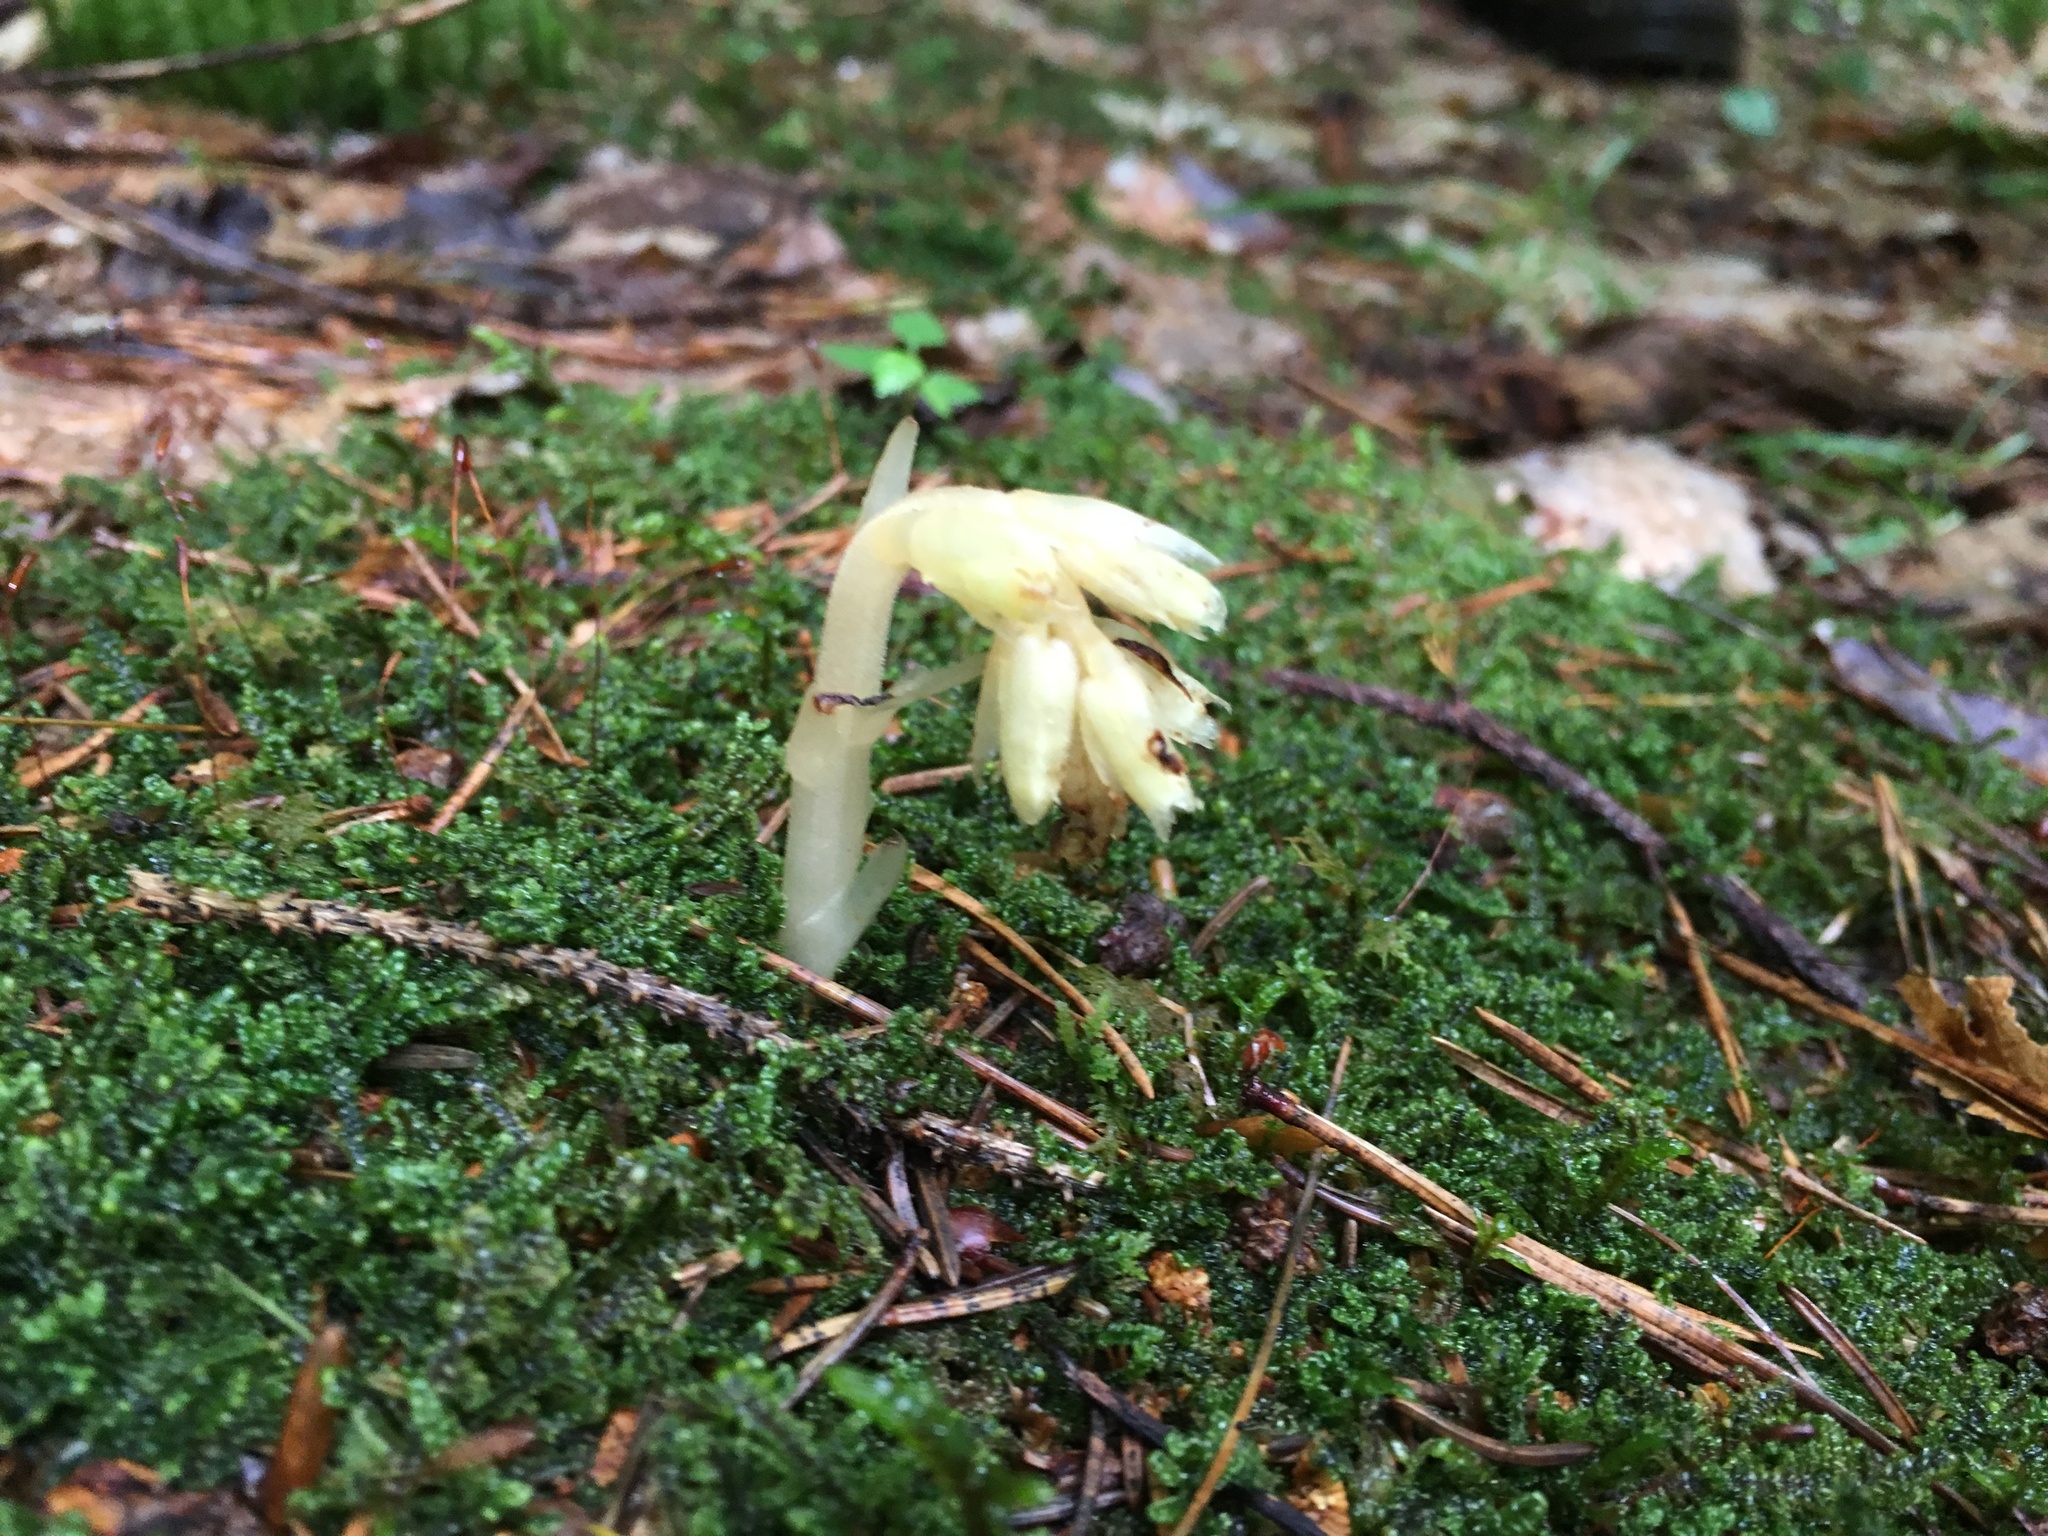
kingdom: Plantae
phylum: Tracheophyta
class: Magnoliopsida
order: Ericales
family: Ericaceae
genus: Hypopitys
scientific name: Hypopitys monotropa
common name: Yellow bird's-nest
